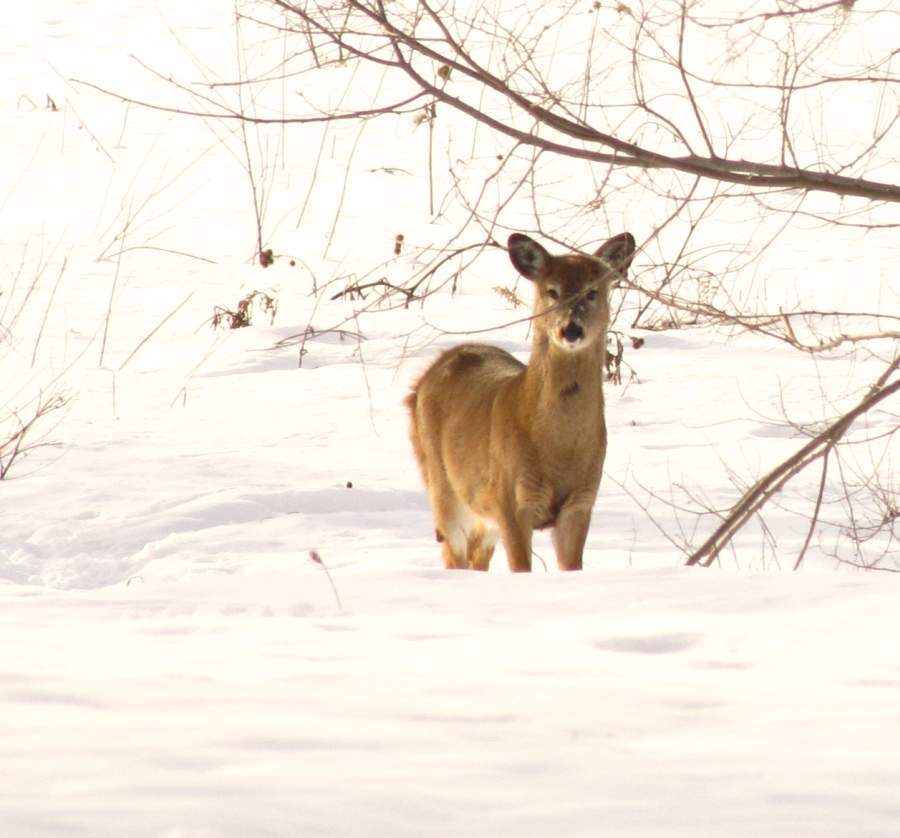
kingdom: Animalia
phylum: Chordata
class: Mammalia
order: Artiodactyla
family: Cervidae
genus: Odocoileus
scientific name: Odocoileus virginianus
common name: White-tailed deer
